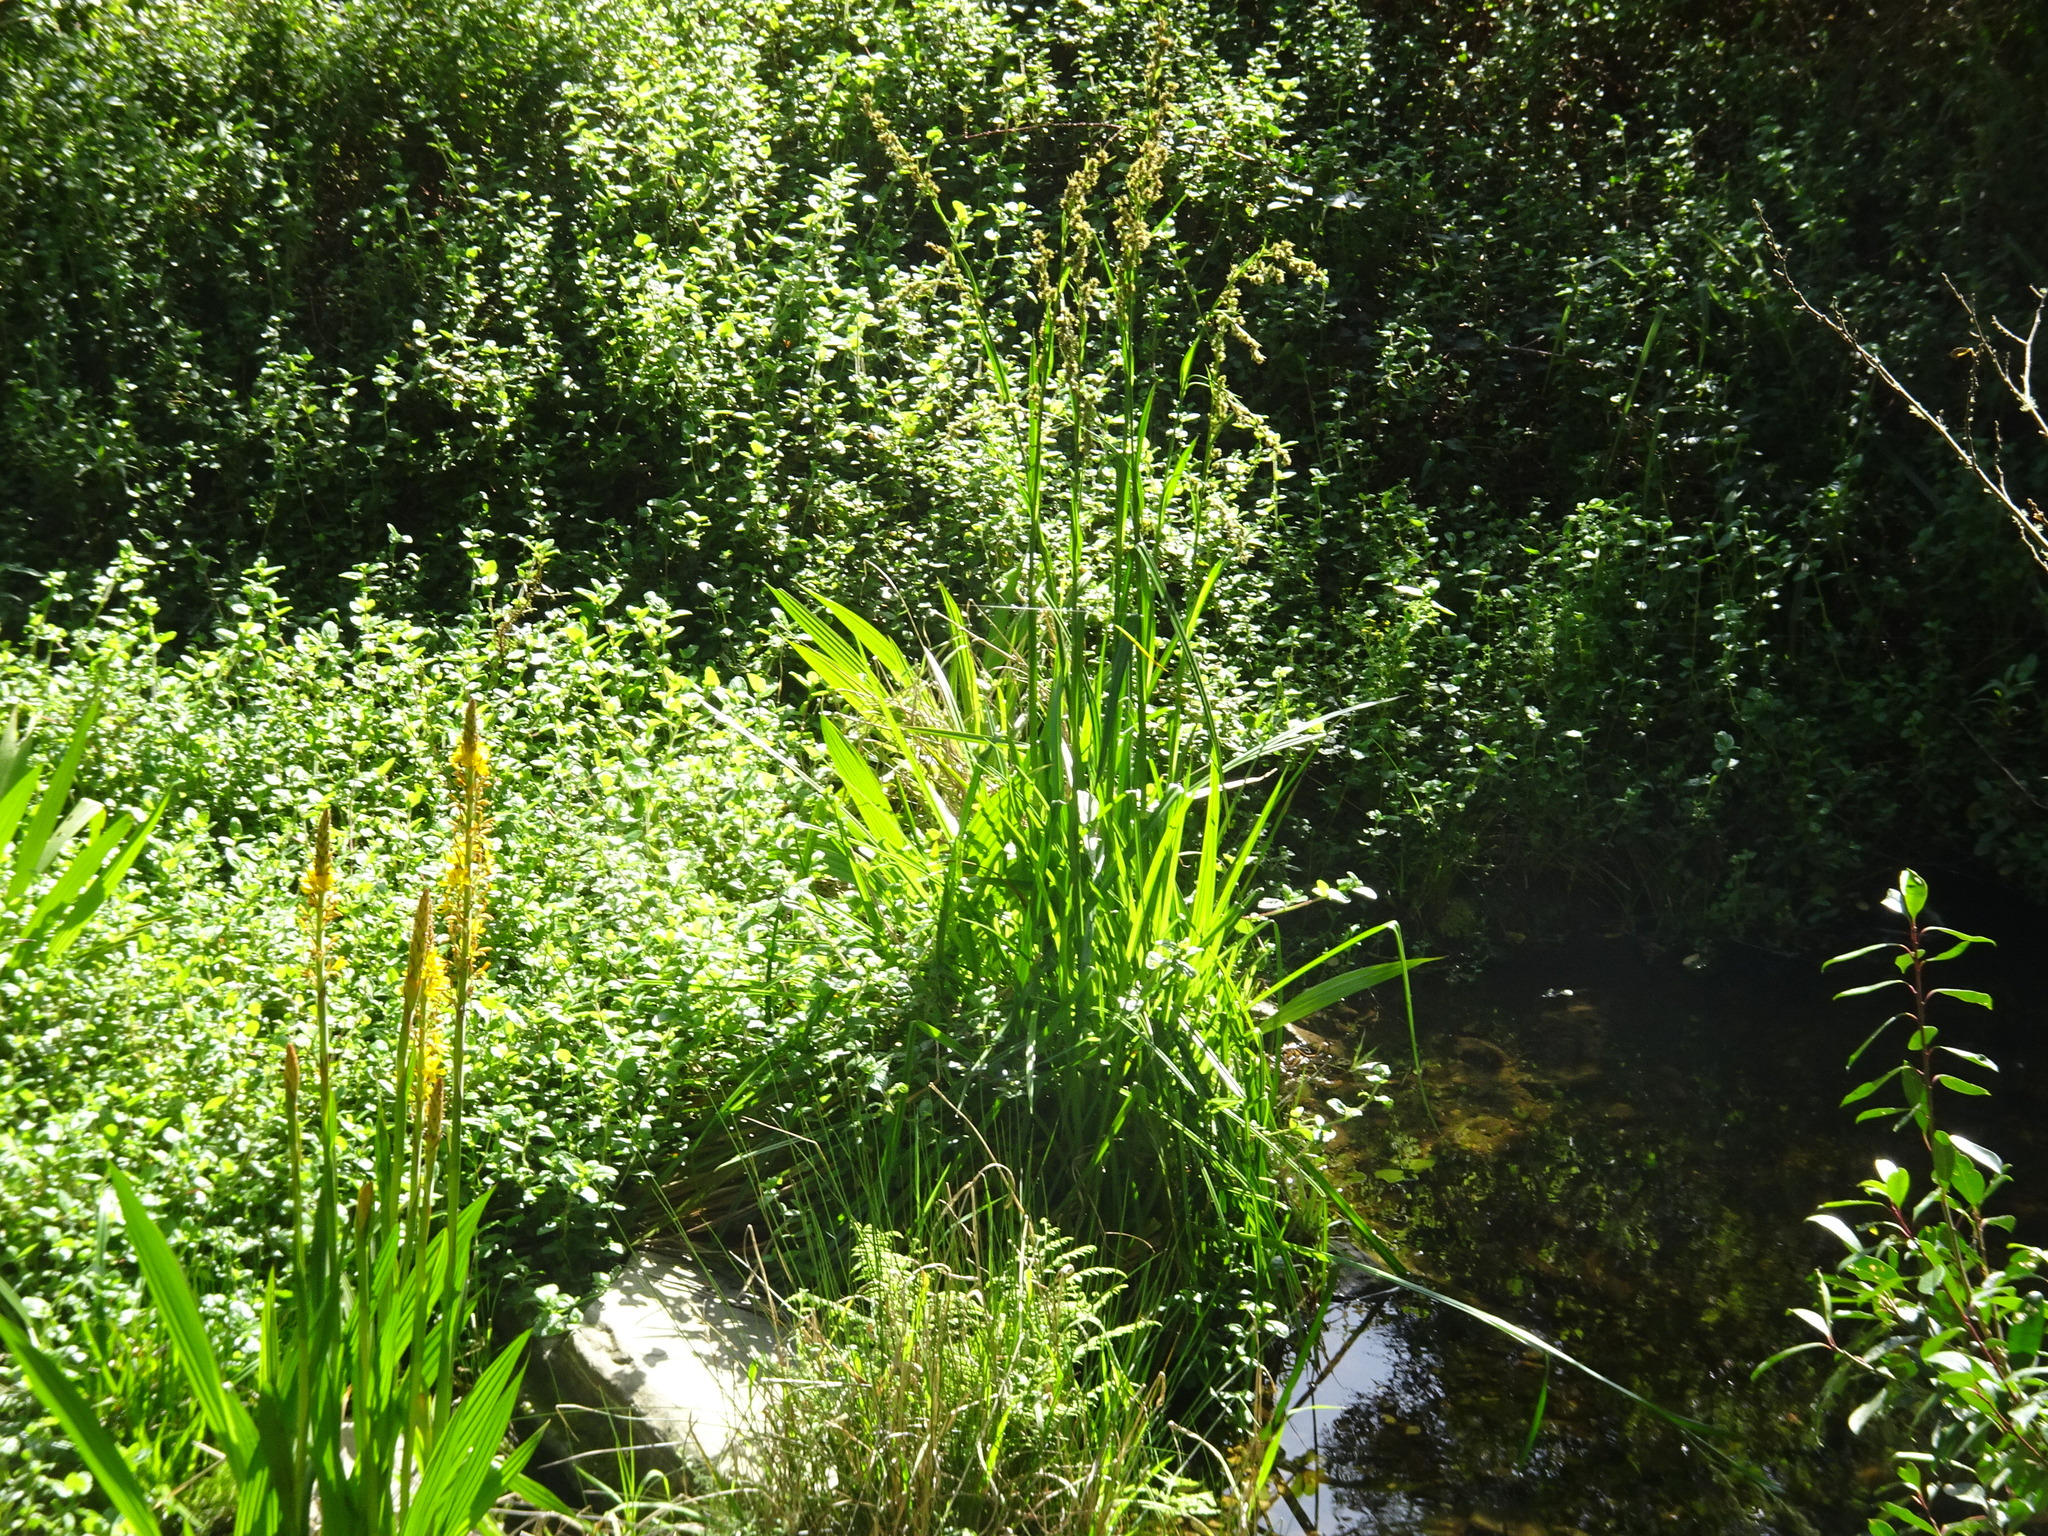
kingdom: Plantae
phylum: Tracheophyta
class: Liliopsida
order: Poales
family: Cyperaceae
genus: Carpha
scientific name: Carpha glomerata
